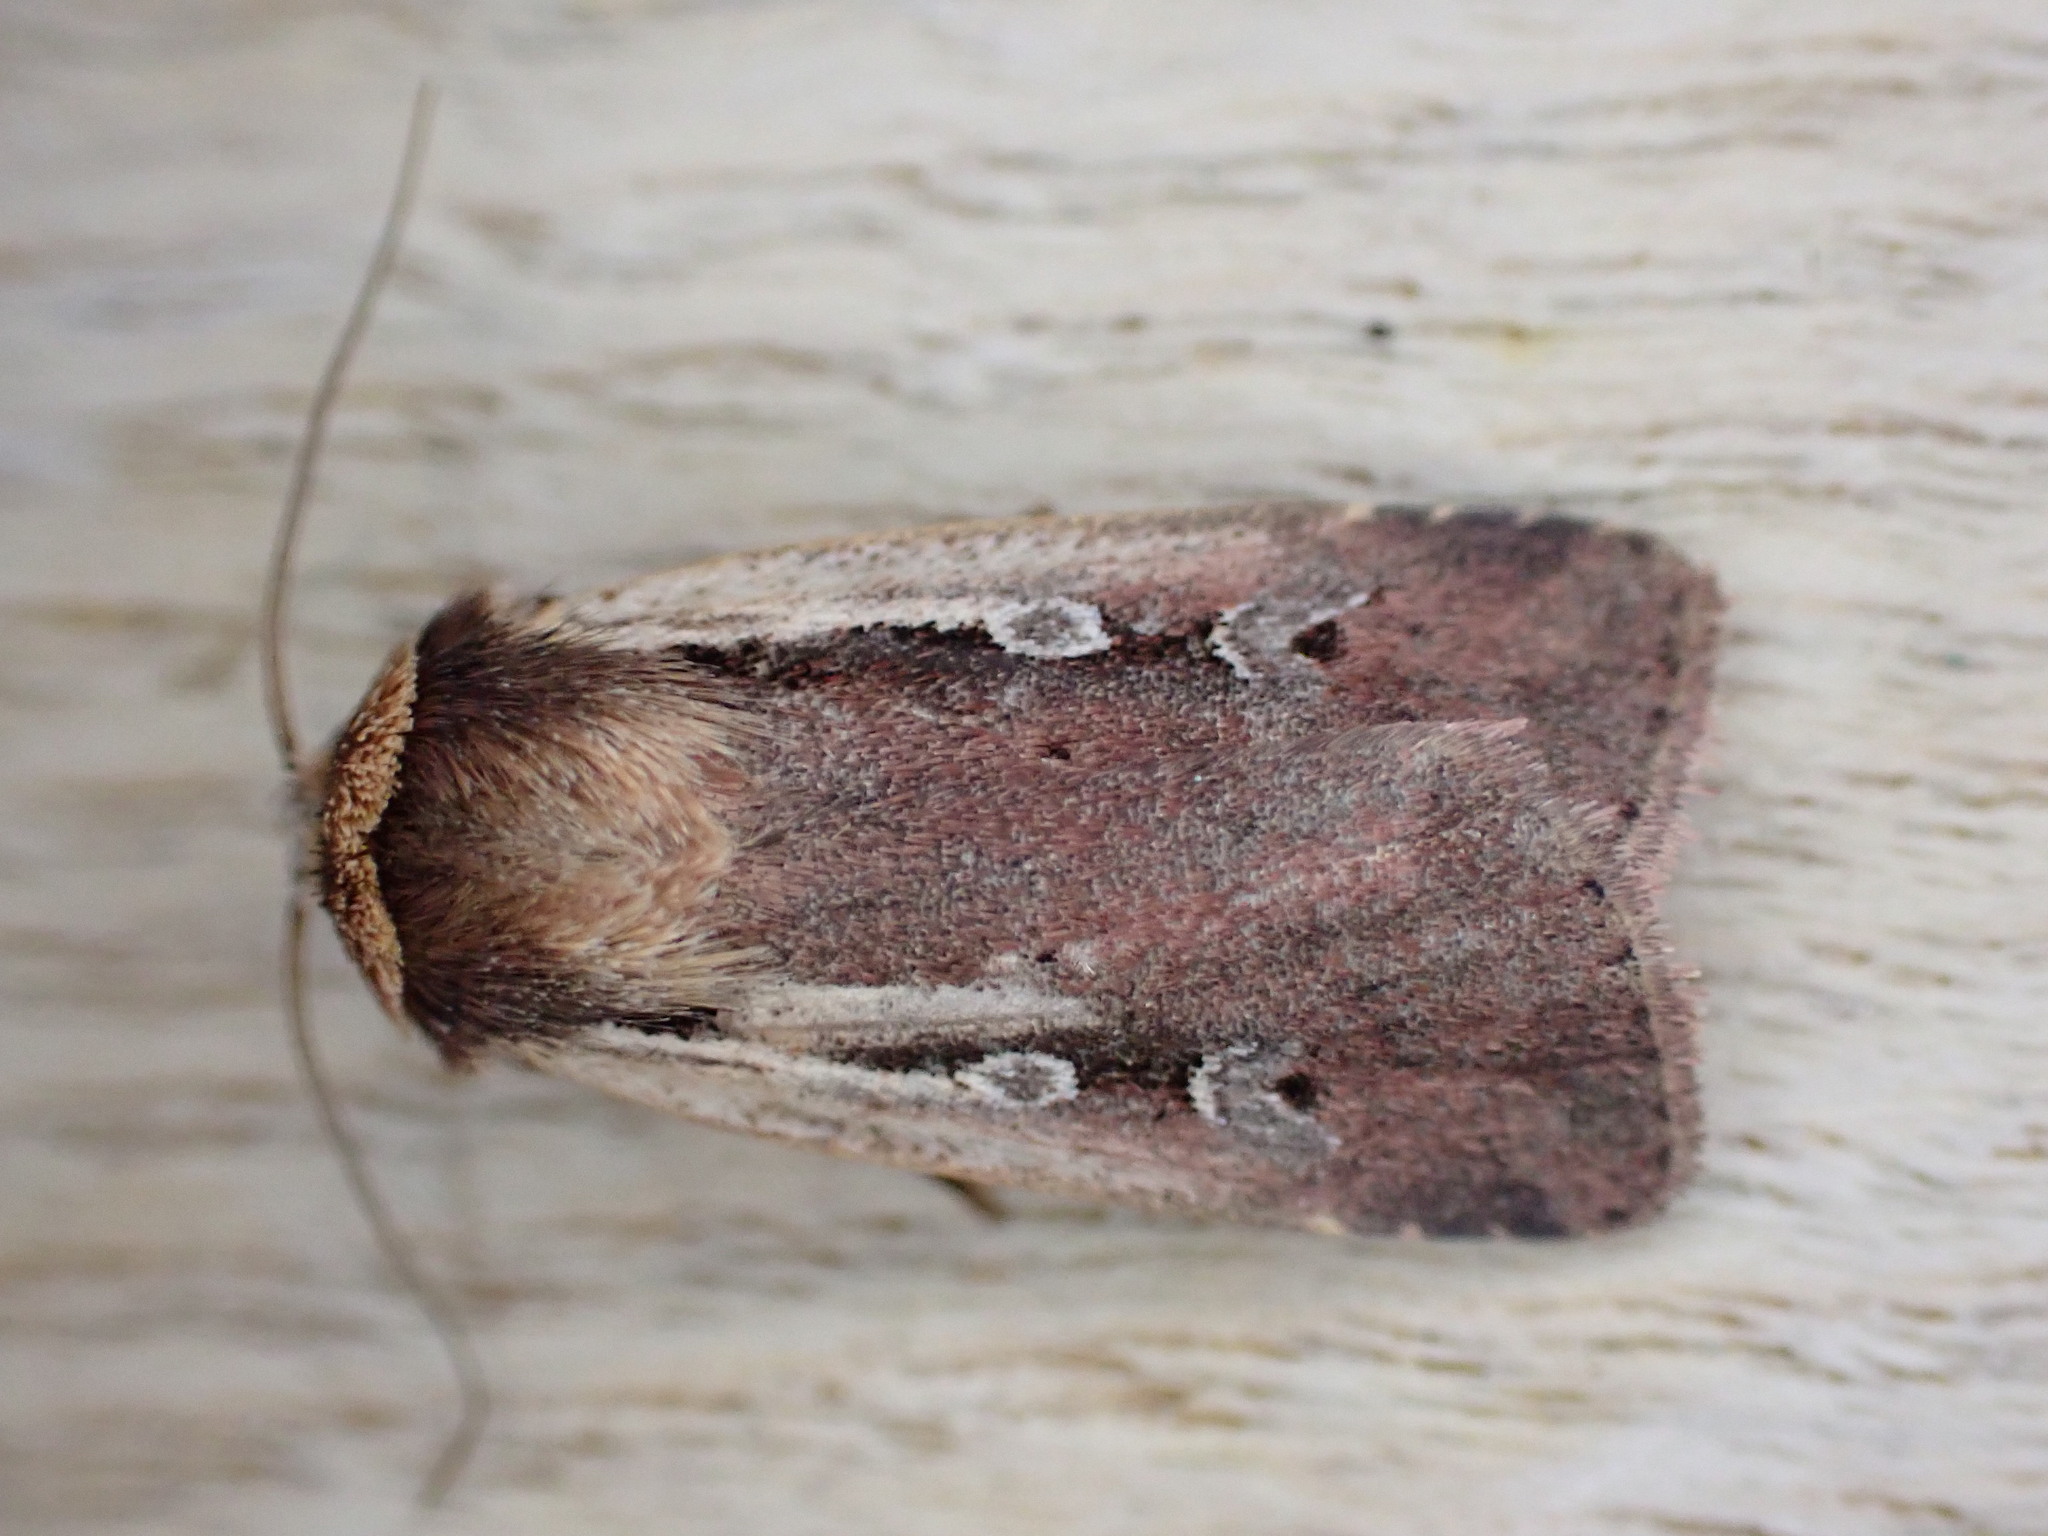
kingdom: Animalia
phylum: Arthropoda
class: Insecta
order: Lepidoptera
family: Noctuidae
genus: Ochropleura
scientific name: Ochropleura plecta
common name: Flame shoulder
